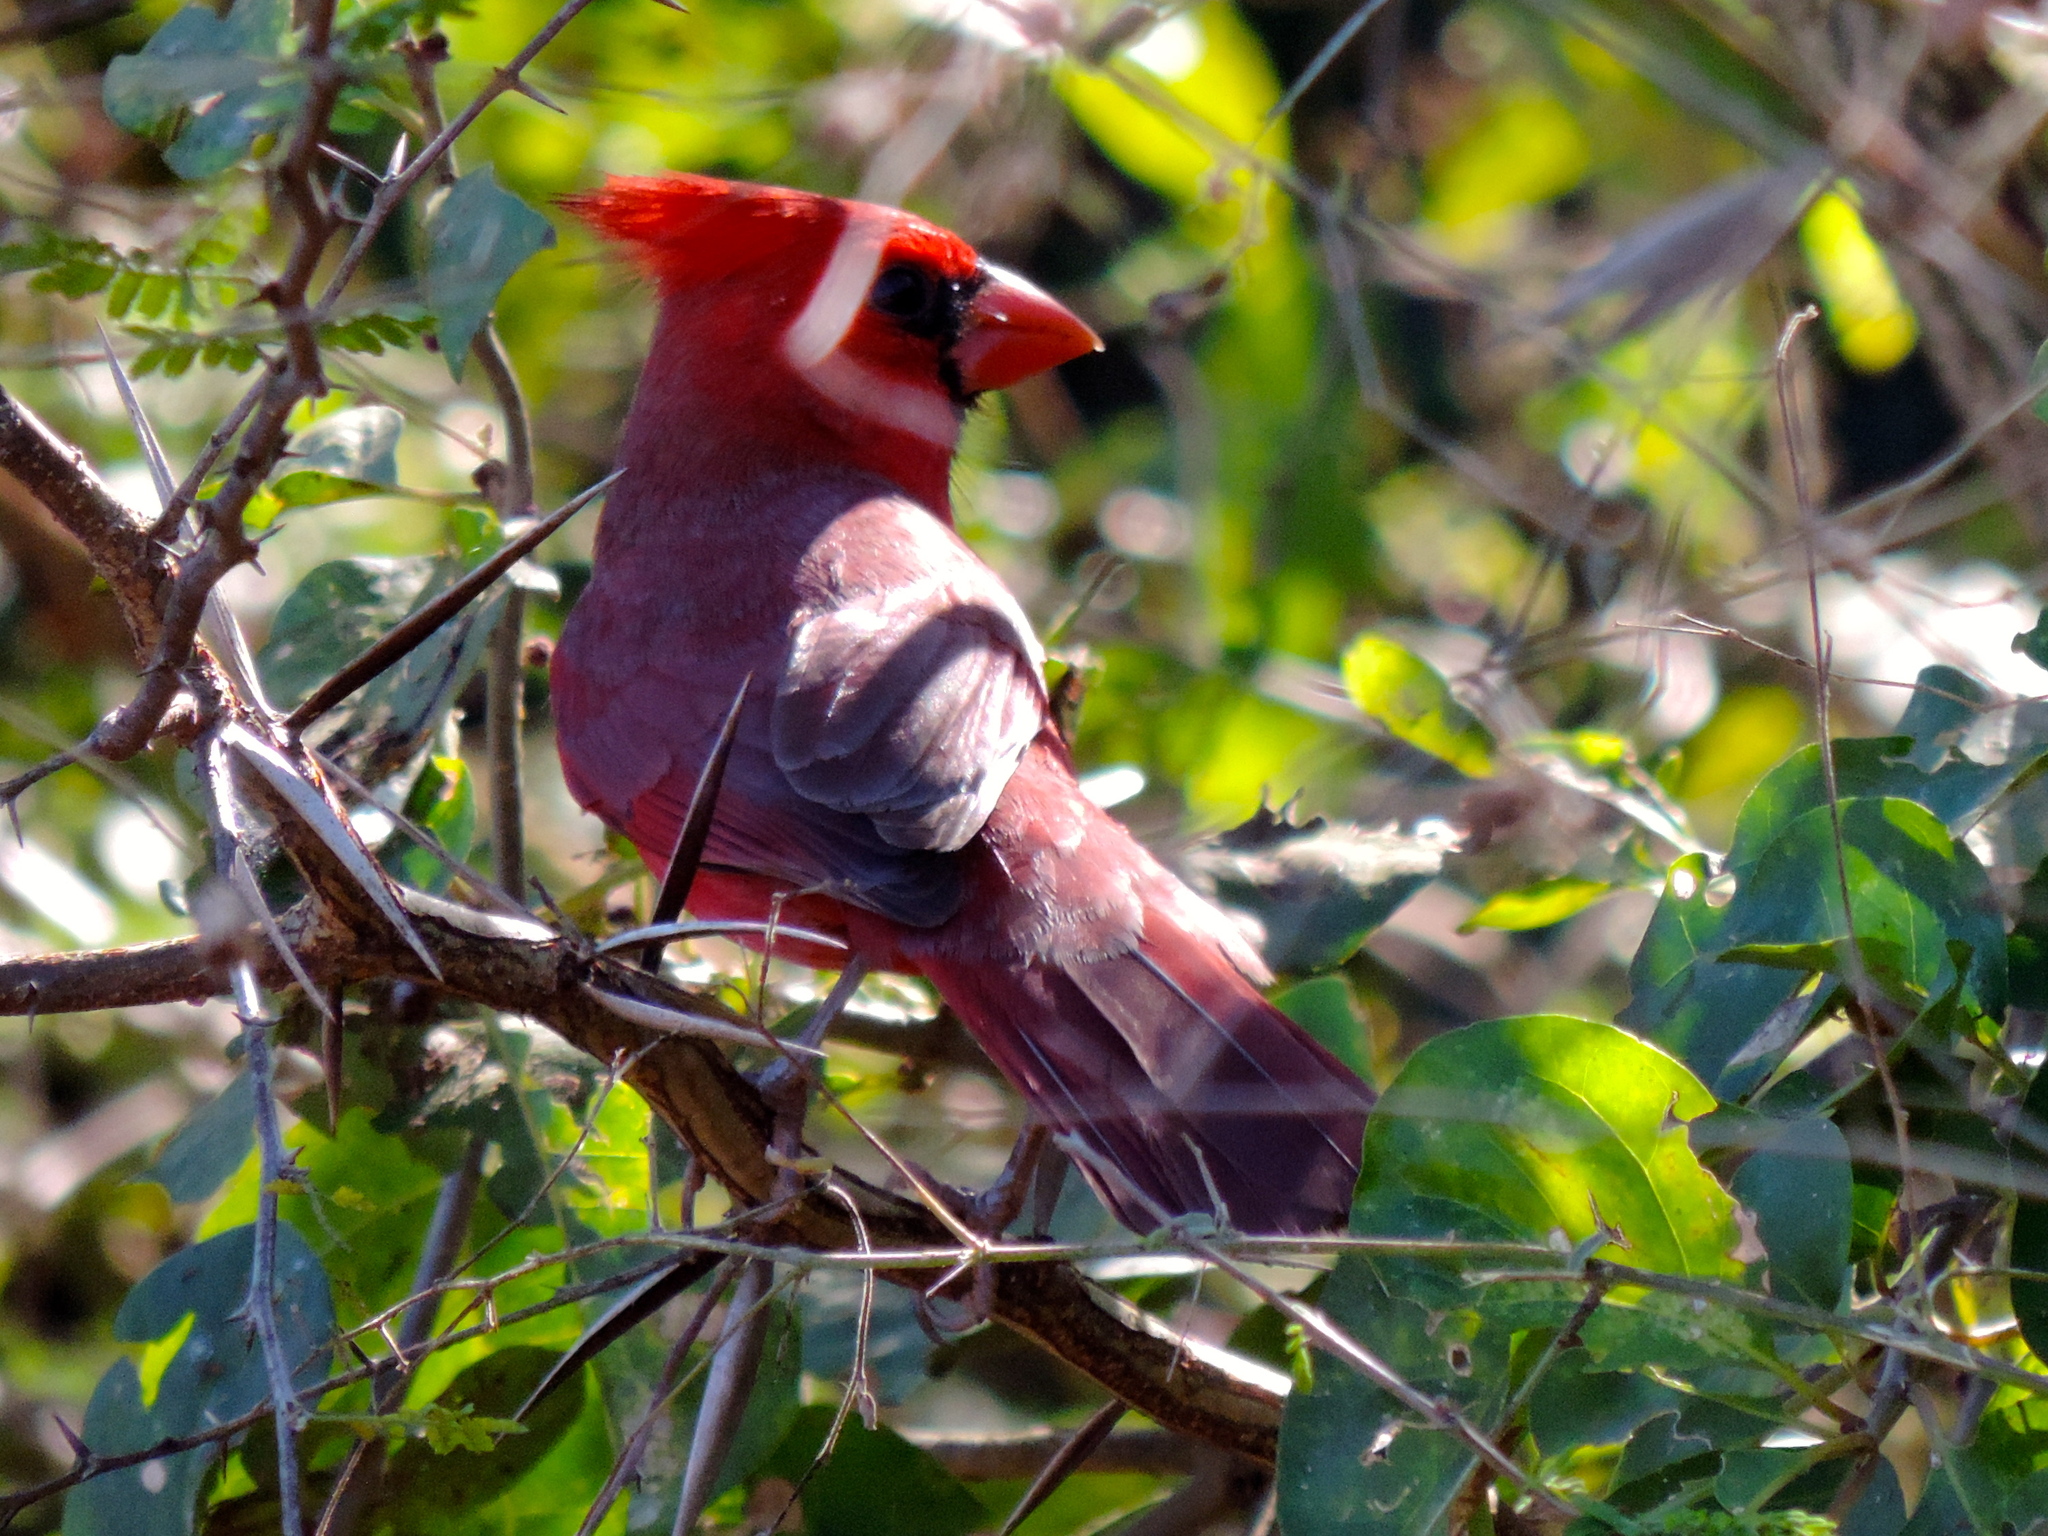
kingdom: Animalia
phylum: Chordata
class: Aves
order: Passeriformes
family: Cardinalidae
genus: Cardinalis
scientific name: Cardinalis cardinalis
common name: Northern cardinal
